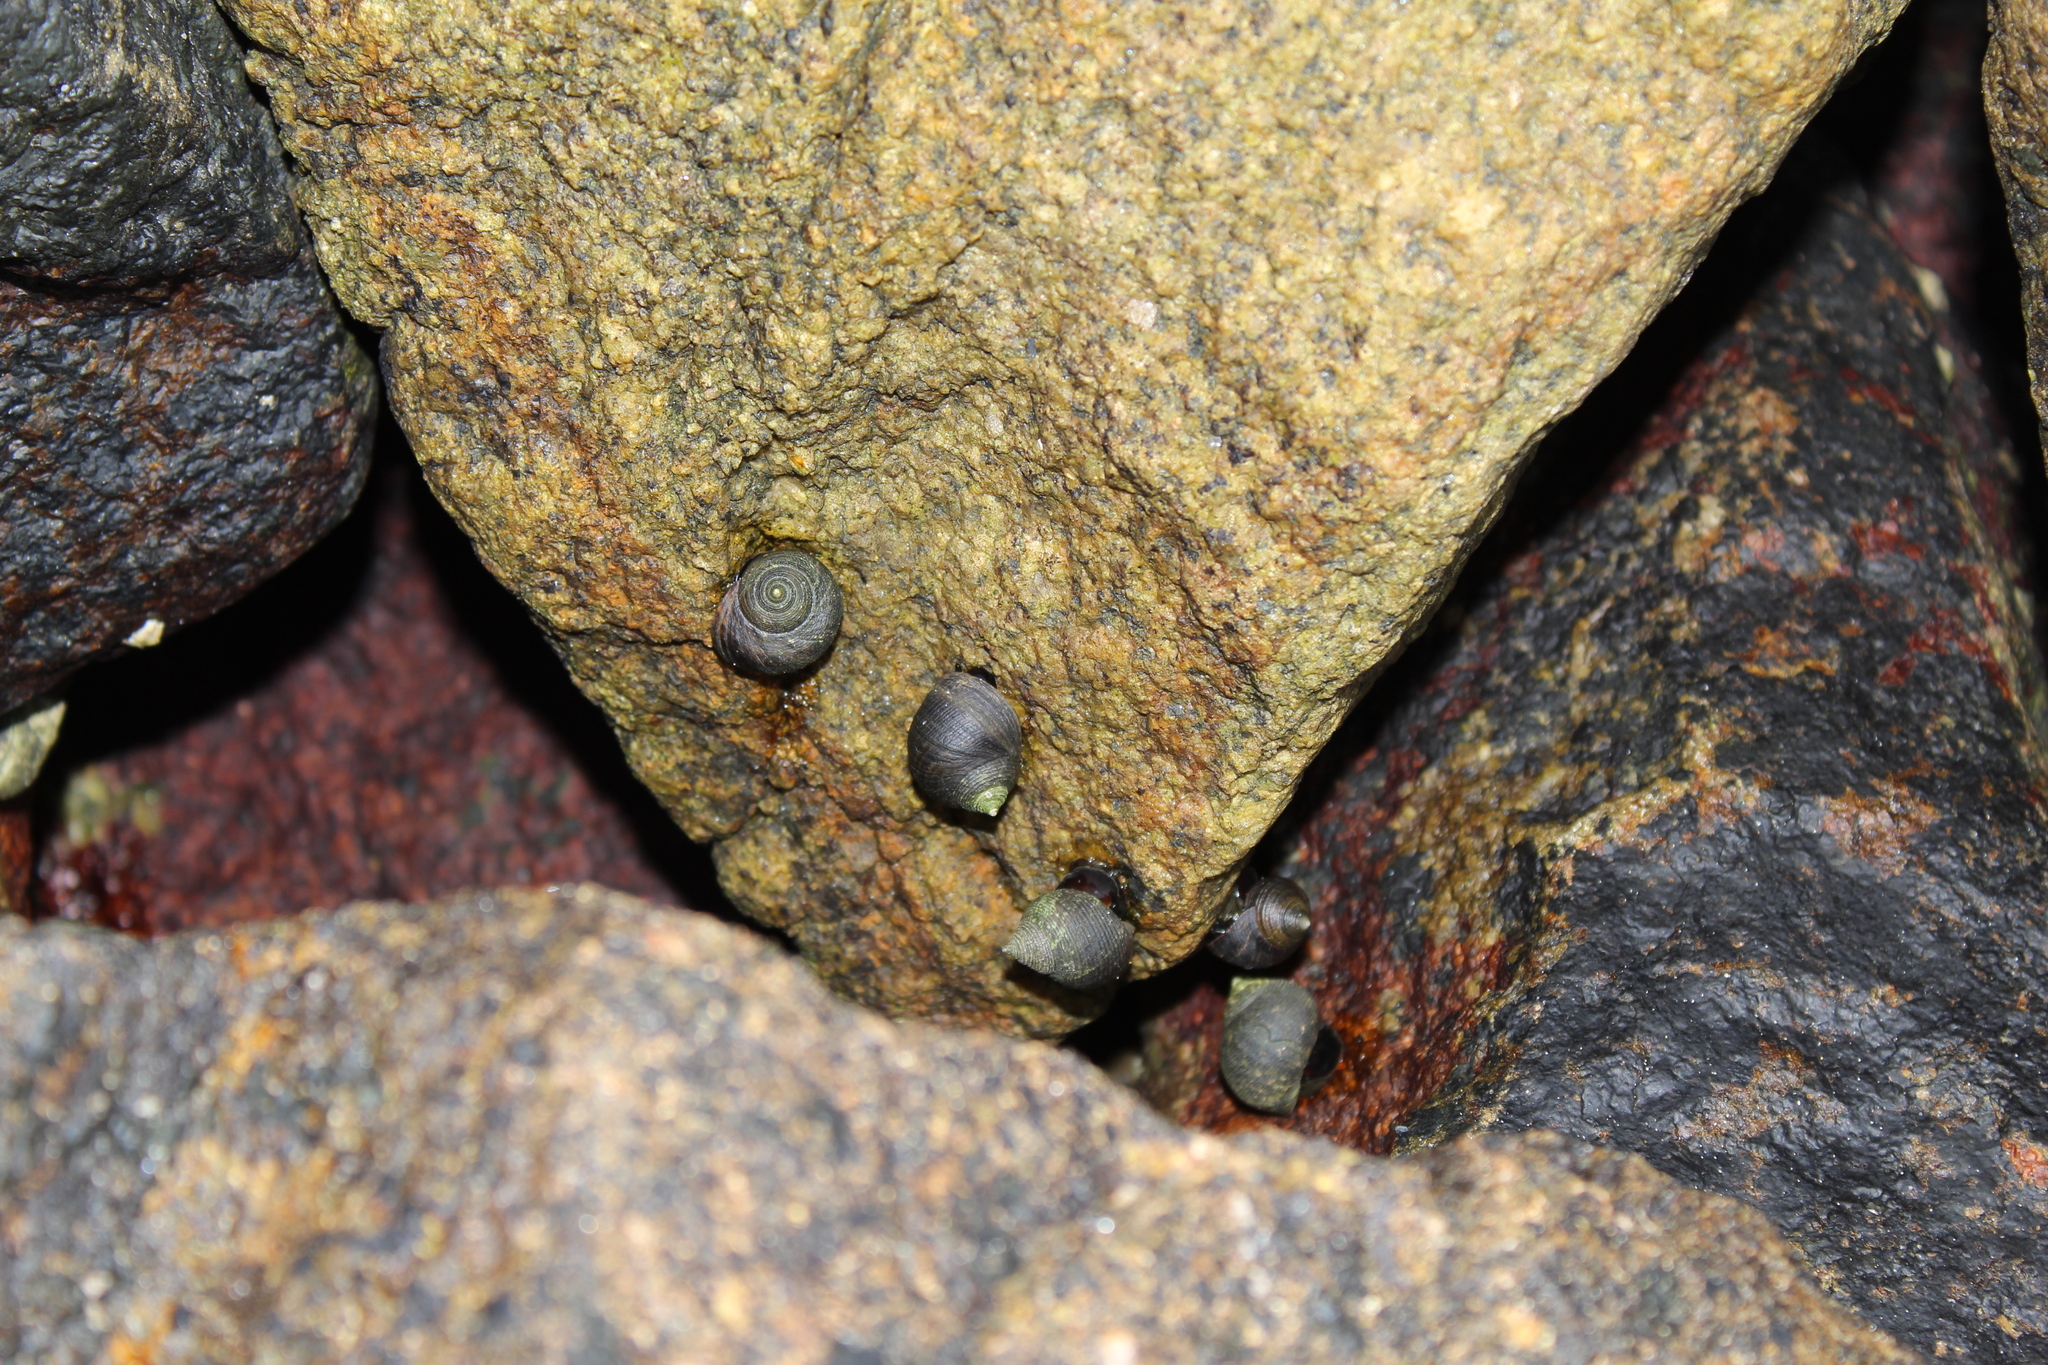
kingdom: Animalia
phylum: Mollusca
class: Gastropoda
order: Littorinimorpha
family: Littorinidae
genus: Littorina
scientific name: Littorina littorea
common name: Common periwinkle
